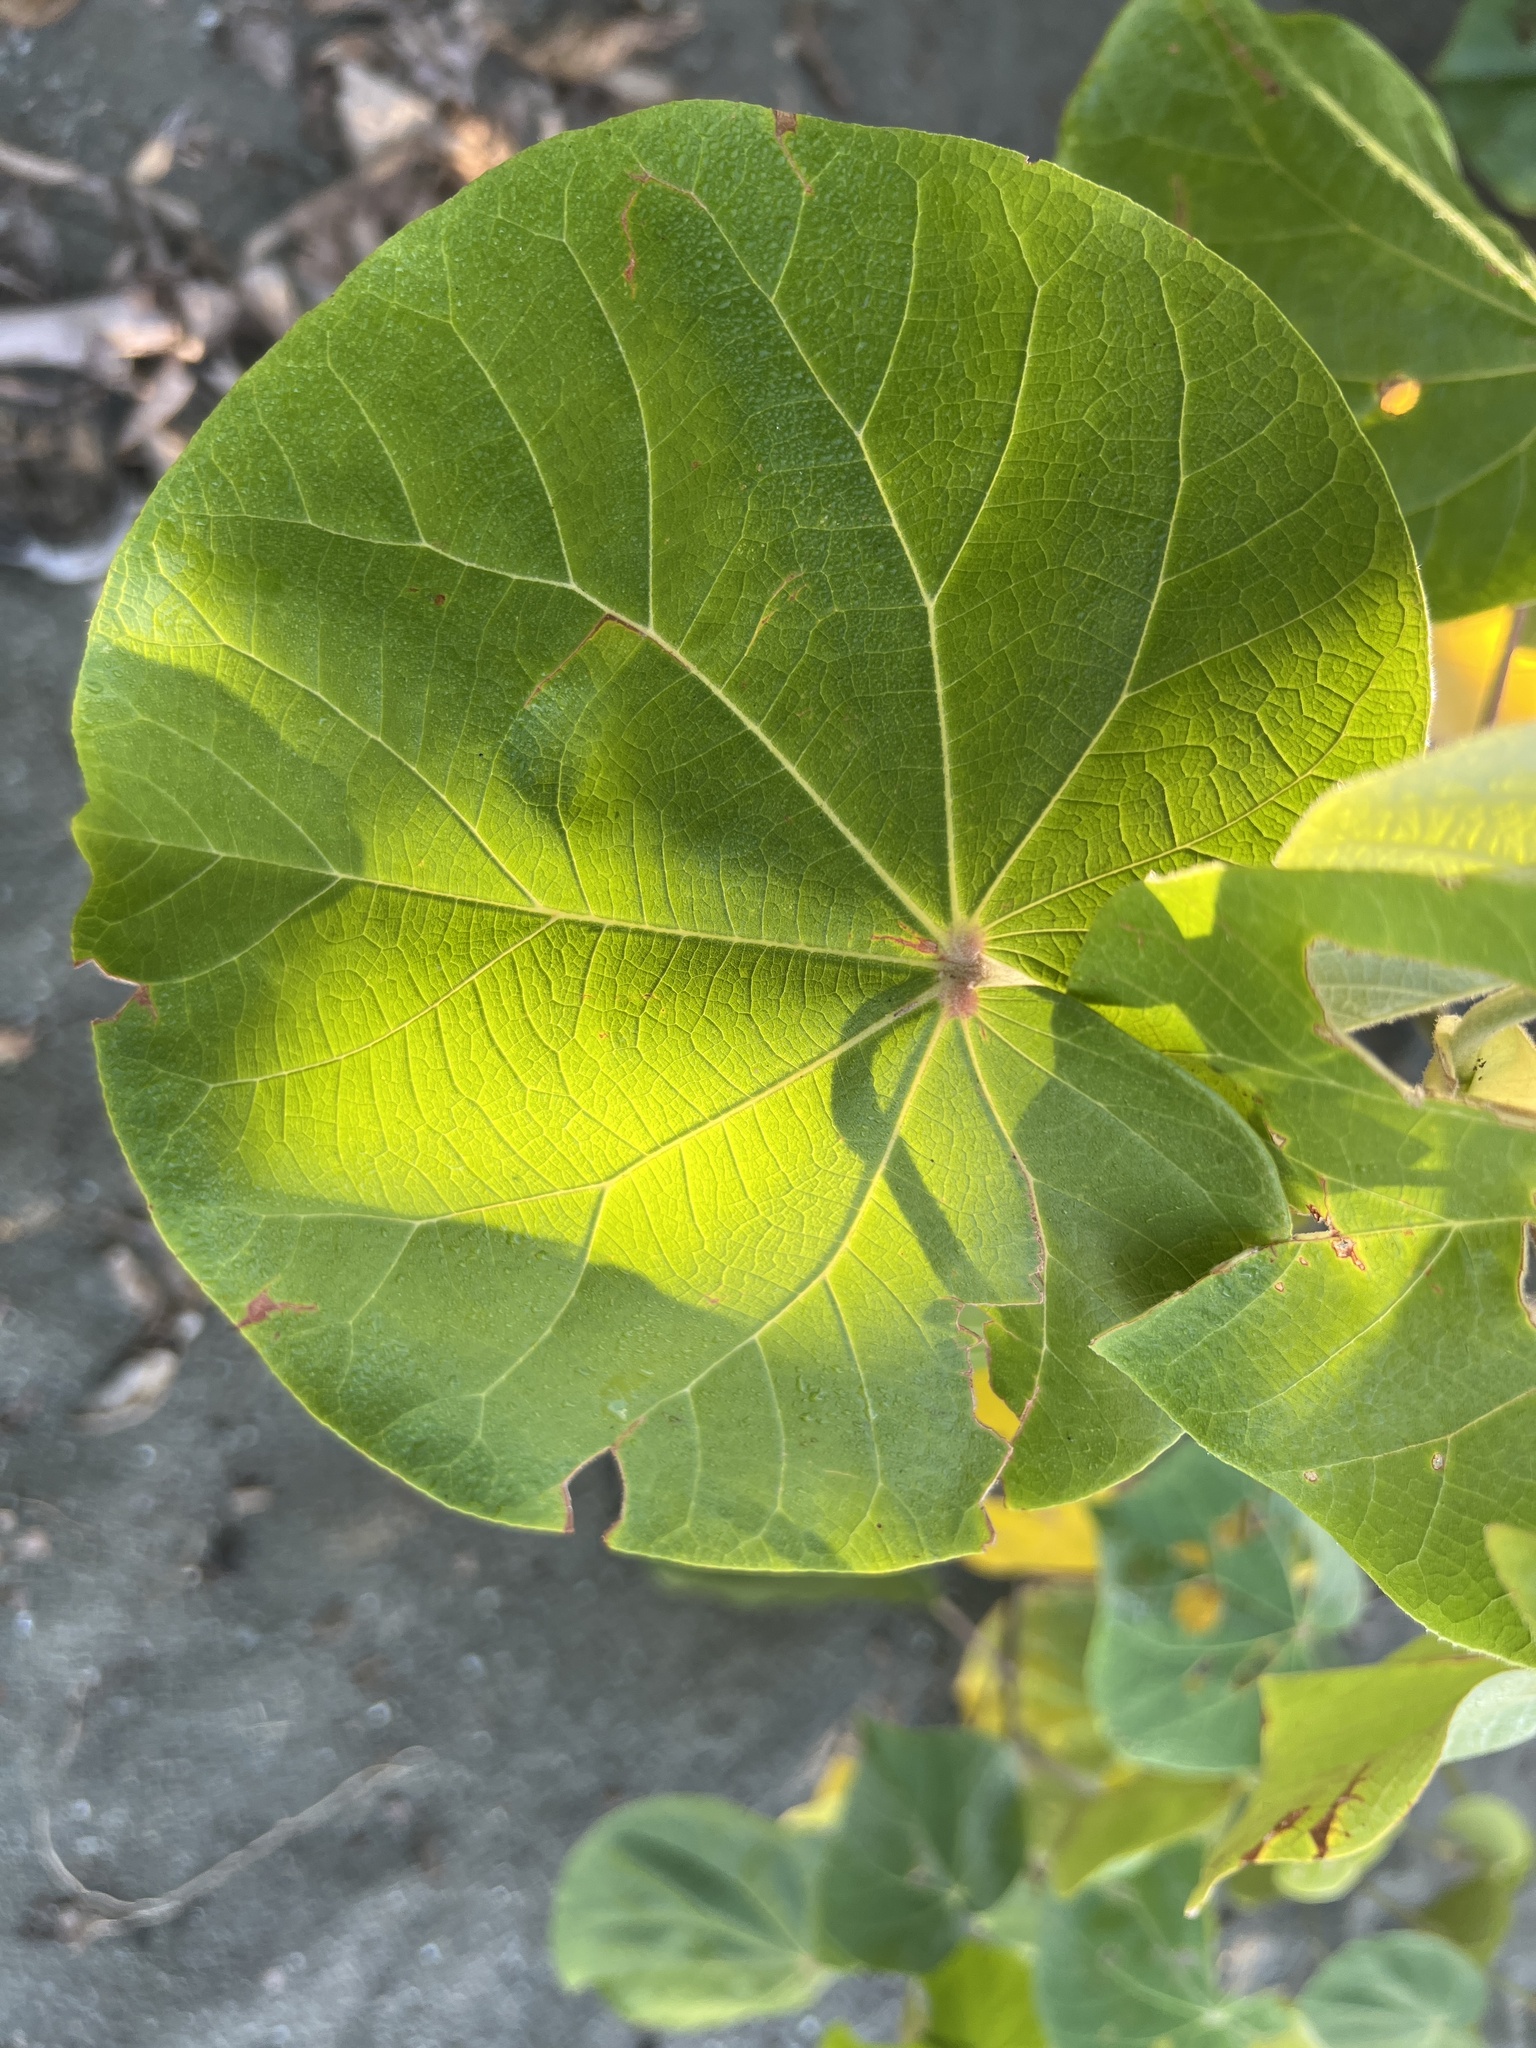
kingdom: Plantae
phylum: Tracheophyta
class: Magnoliopsida
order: Malvales
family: Malvaceae
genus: Talipariti
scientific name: Talipariti tiliaceum
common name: Sea hibiscus
